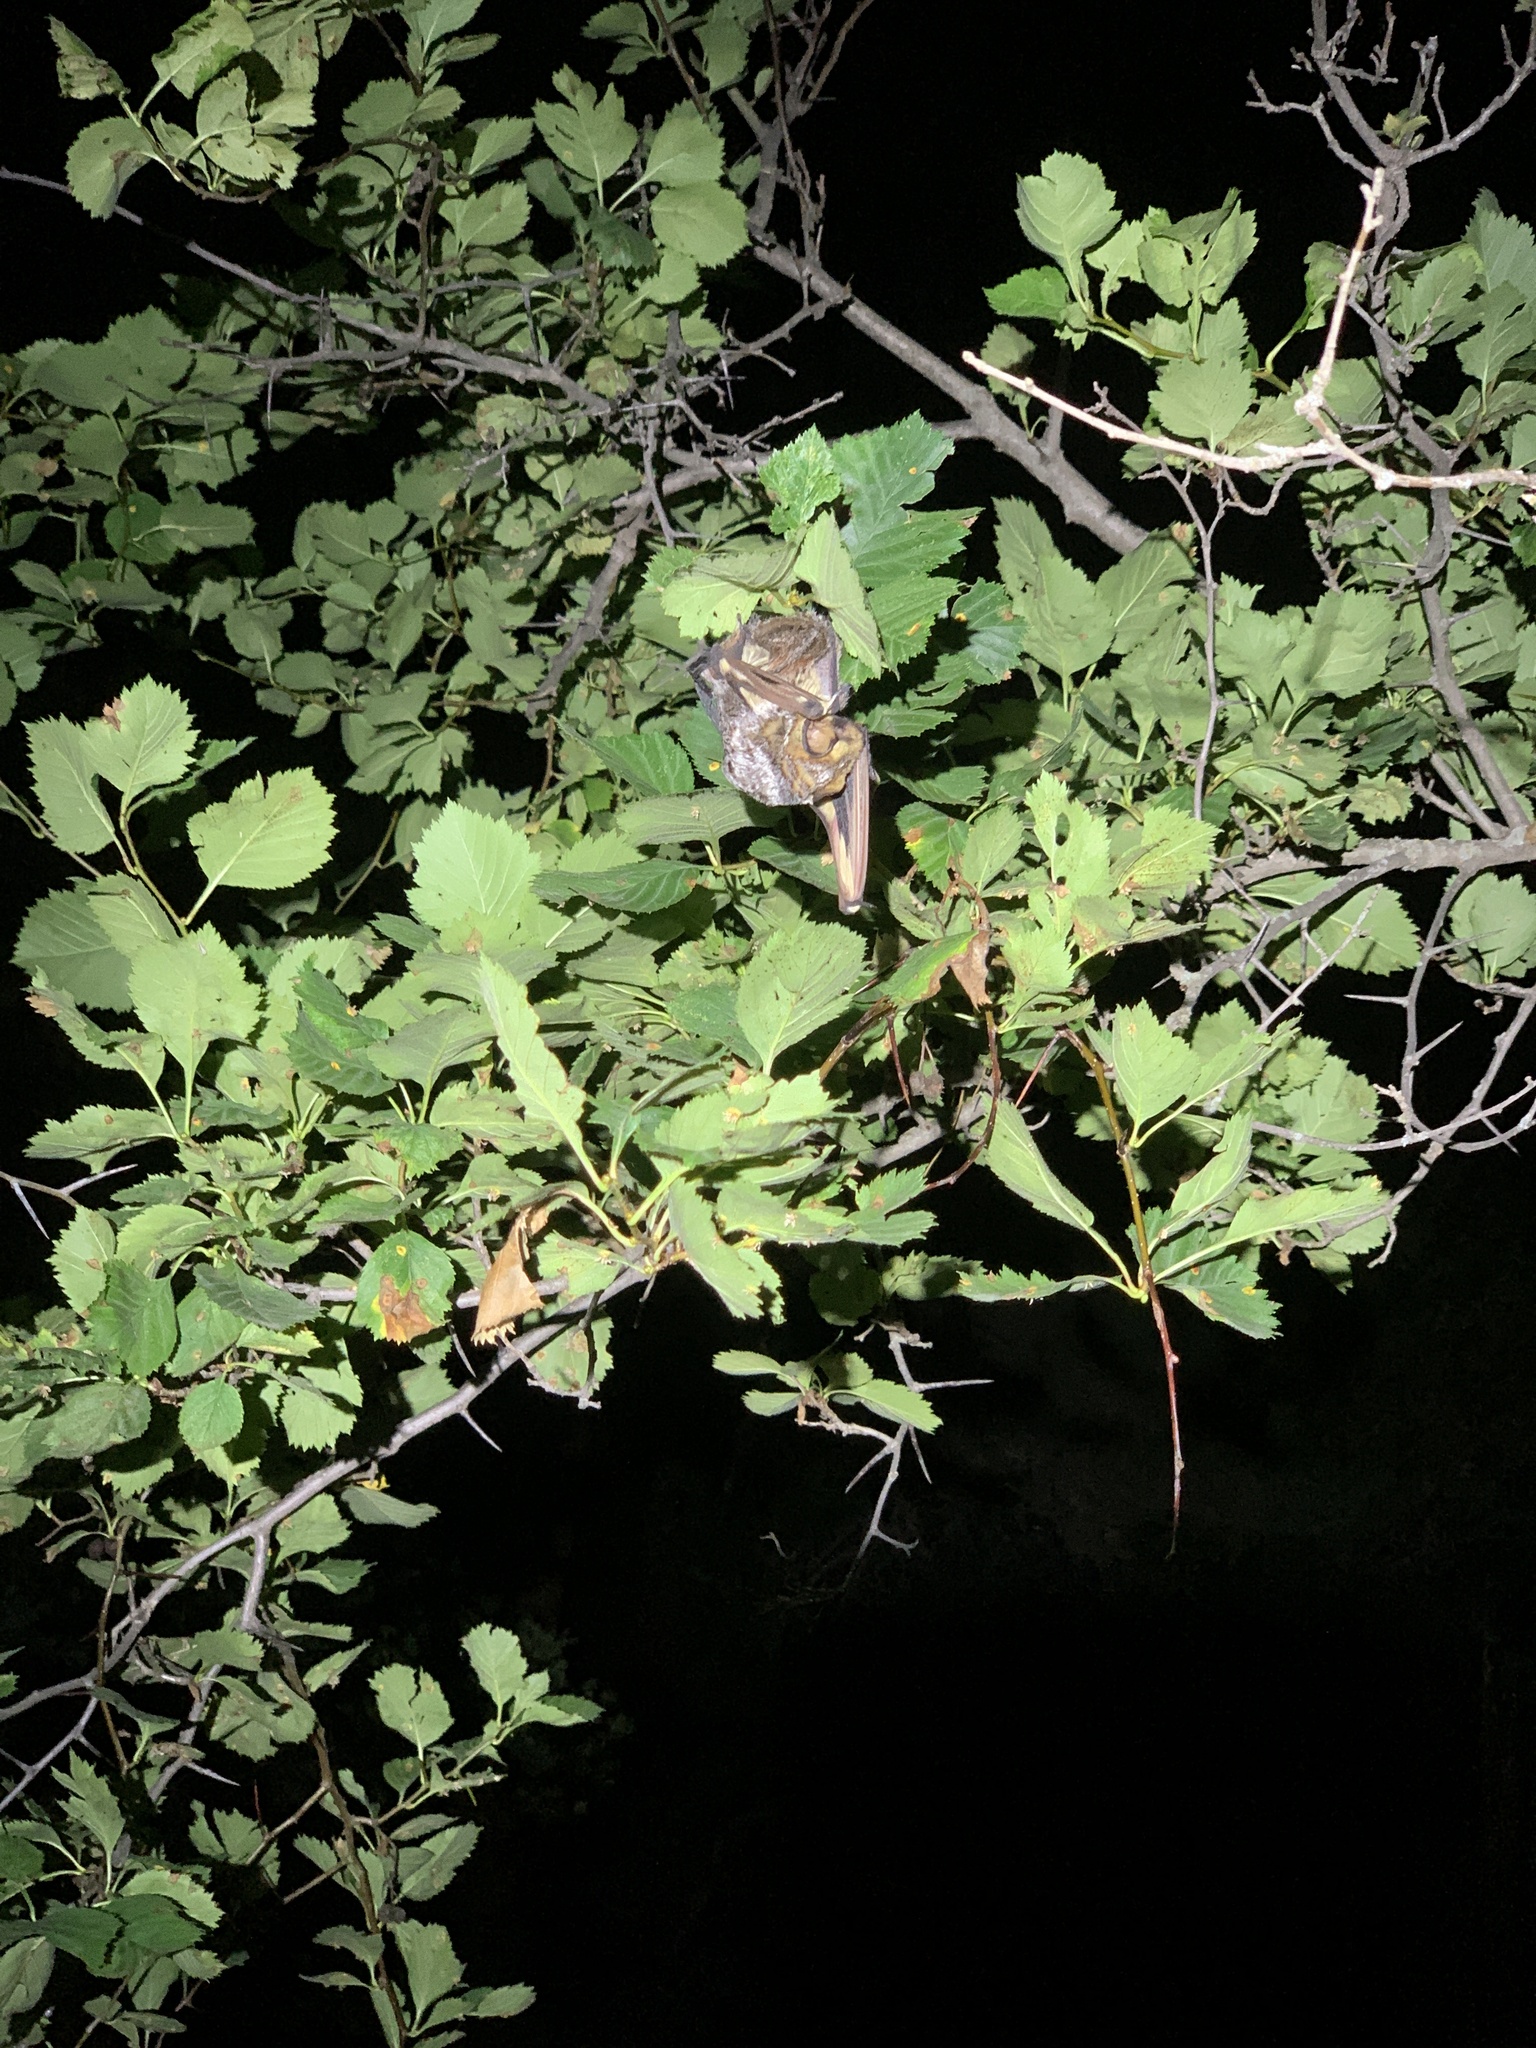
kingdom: Animalia
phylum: Chordata
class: Mammalia
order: Chiroptera
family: Vespertilionidae
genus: Aeorestes
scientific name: Aeorestes cinereus
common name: North american hoary bat
